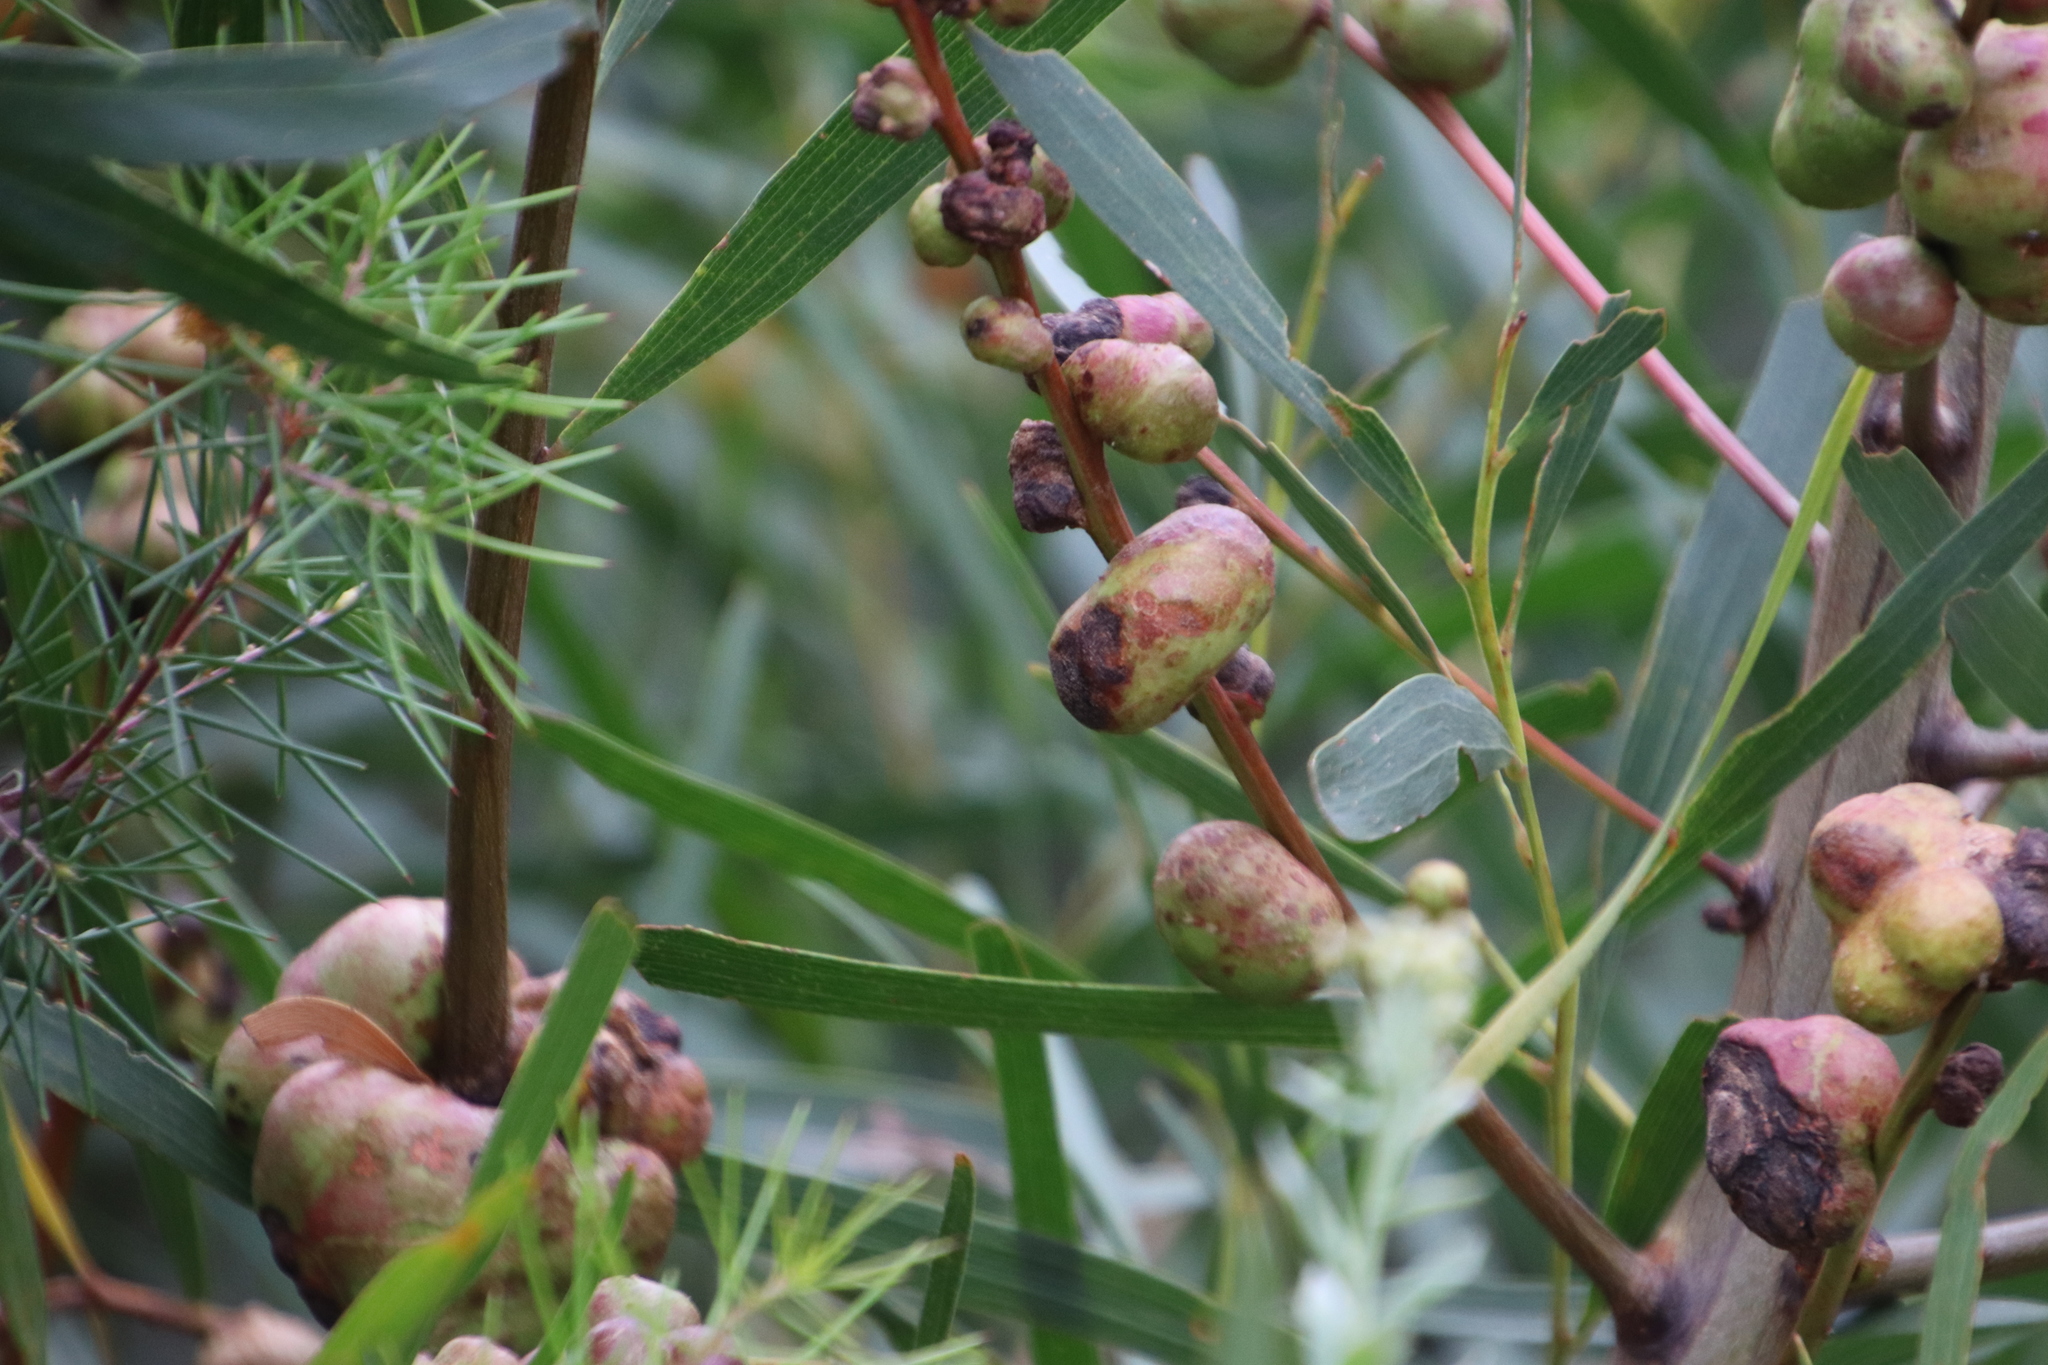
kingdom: Animalia
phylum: Arthropoda
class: Insecta
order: Hymenoptera
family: Pteromalidae
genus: Trichilogaster
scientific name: Trichilogaster acaciaelongifoliae
